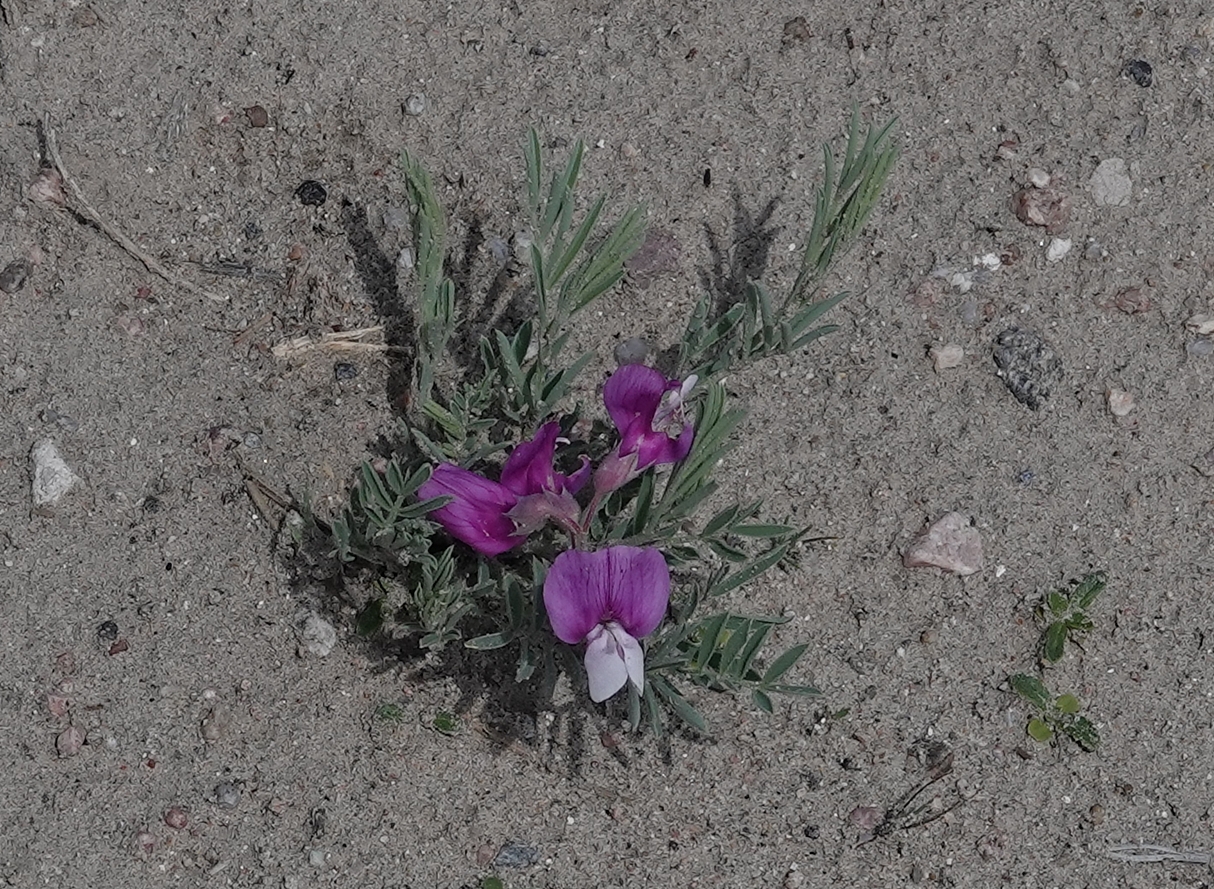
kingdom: Plantae
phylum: Tracheophyta
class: Magnoliopsida
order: Fabales
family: Fabaceae
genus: Lathyrus
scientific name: Lathyrus
